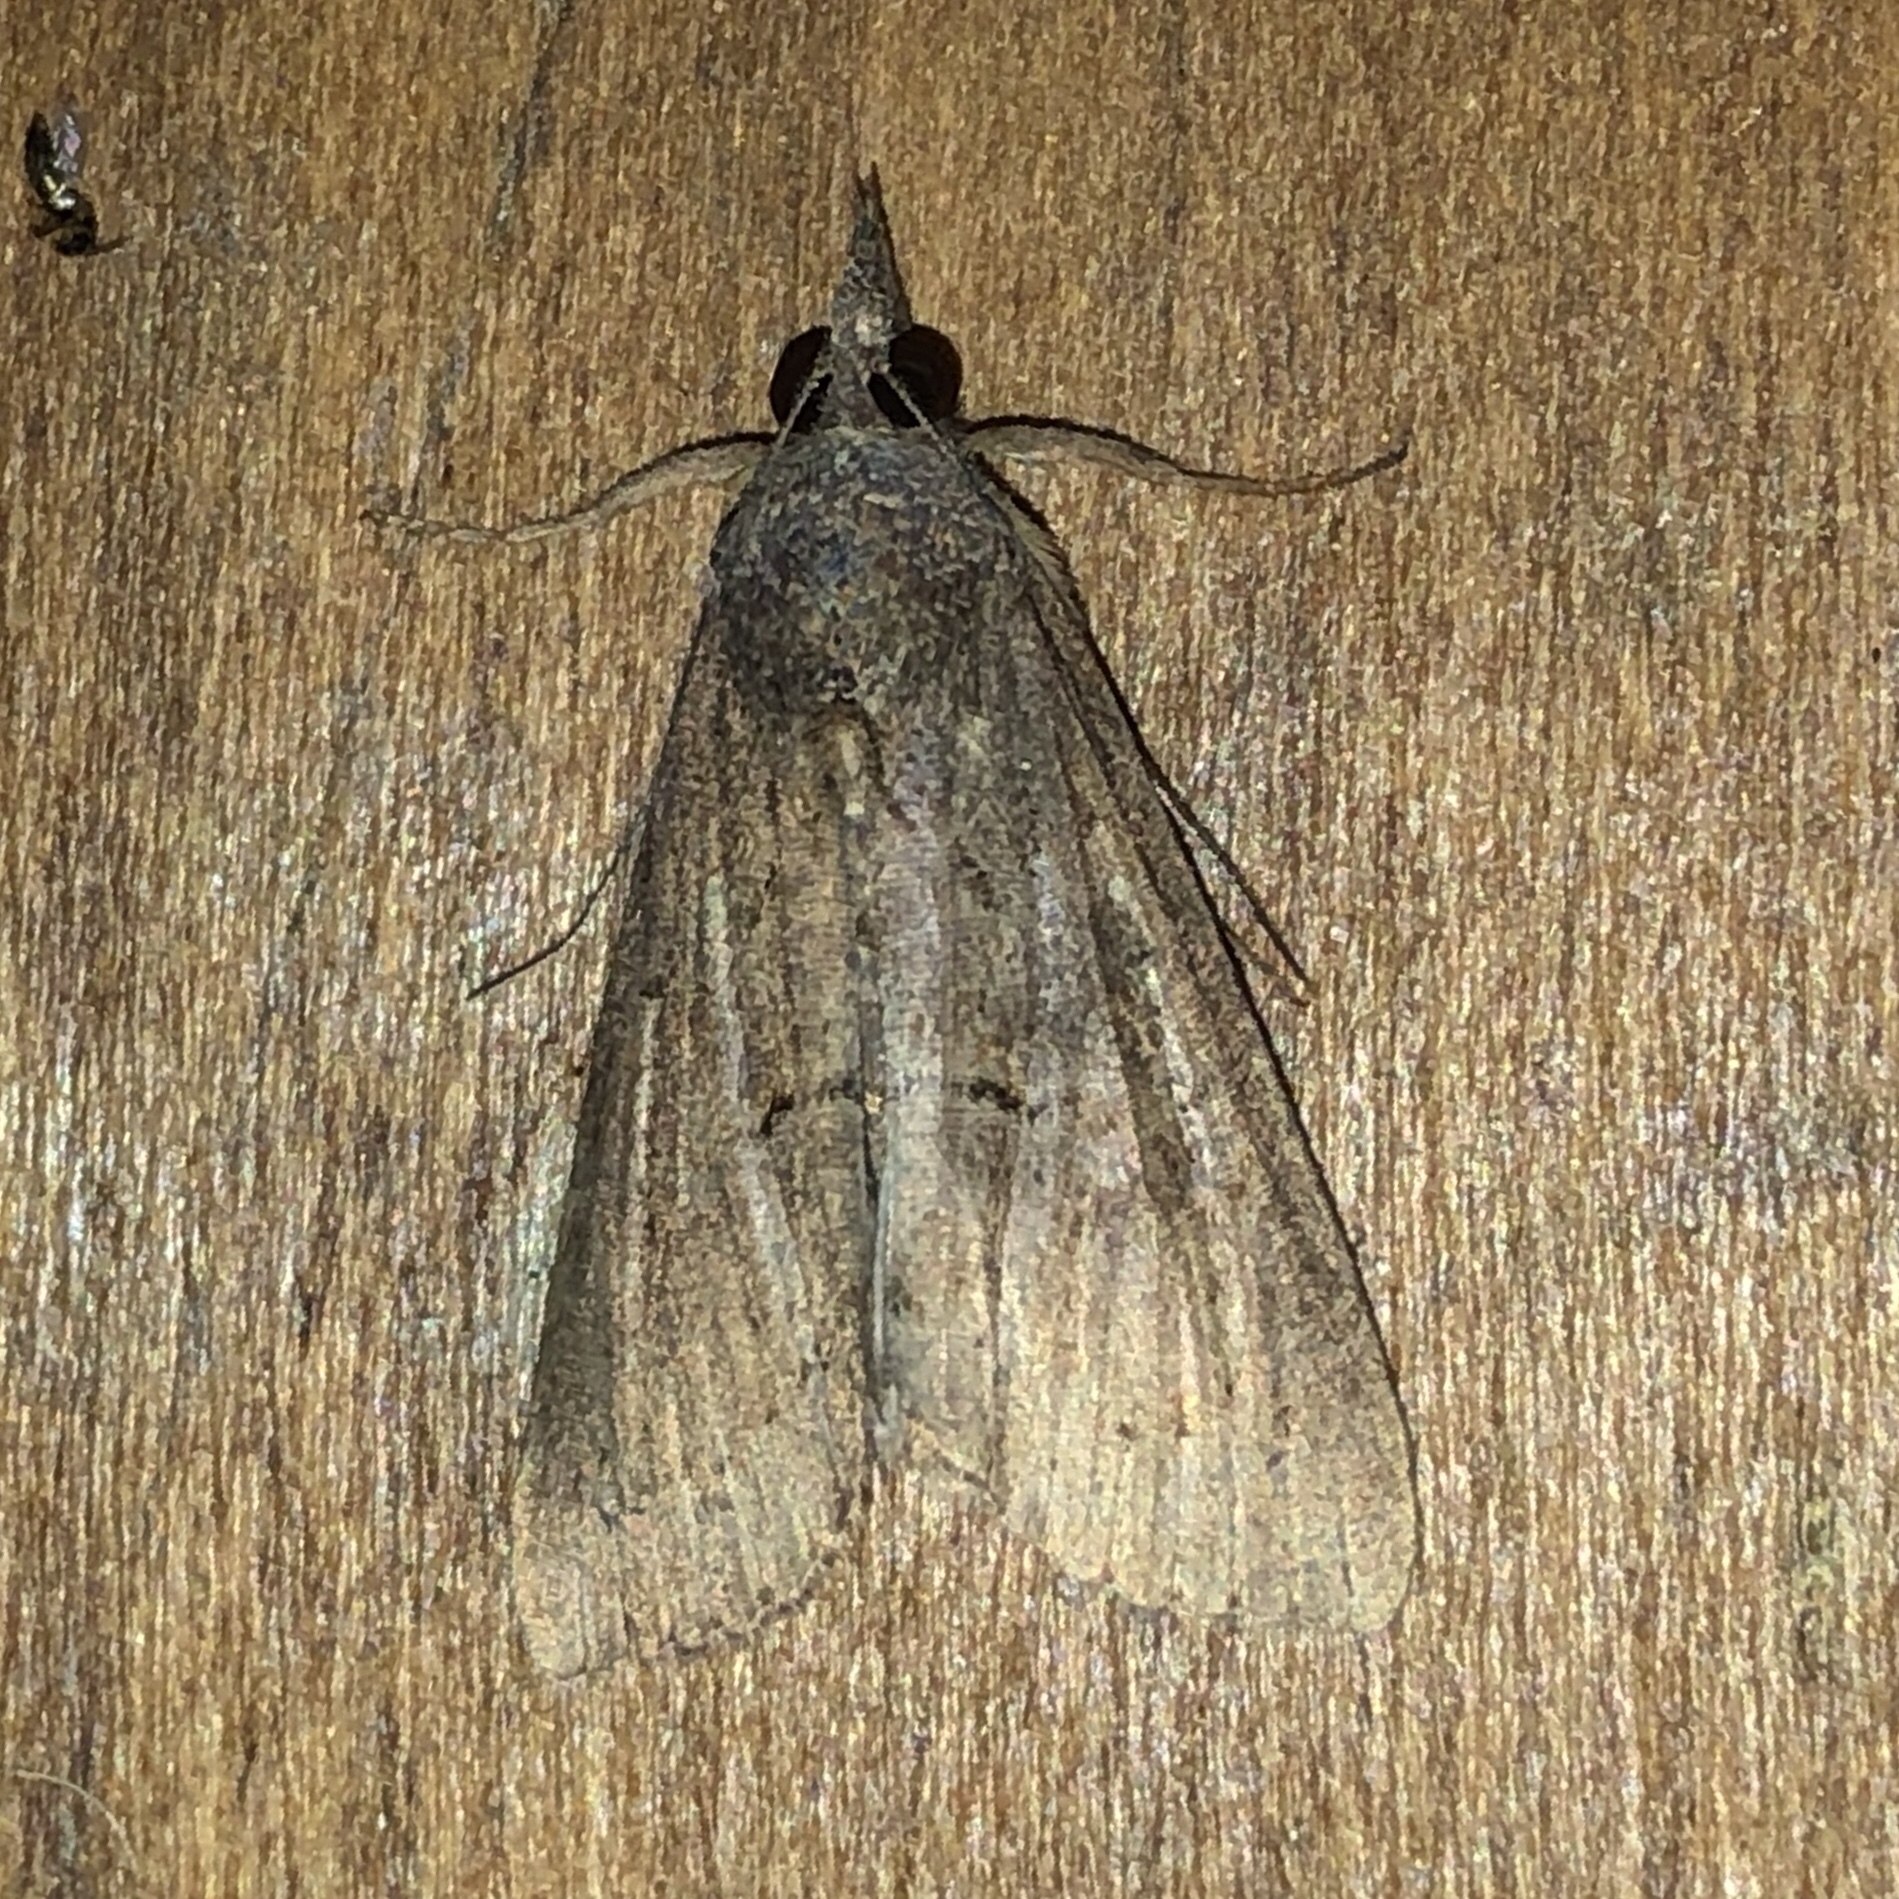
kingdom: Animalia
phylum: Arthropoda
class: Insecta
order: Lepidoptera
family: Erebidae
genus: Hypena
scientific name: Hypena scabra
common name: Green cloverworm
